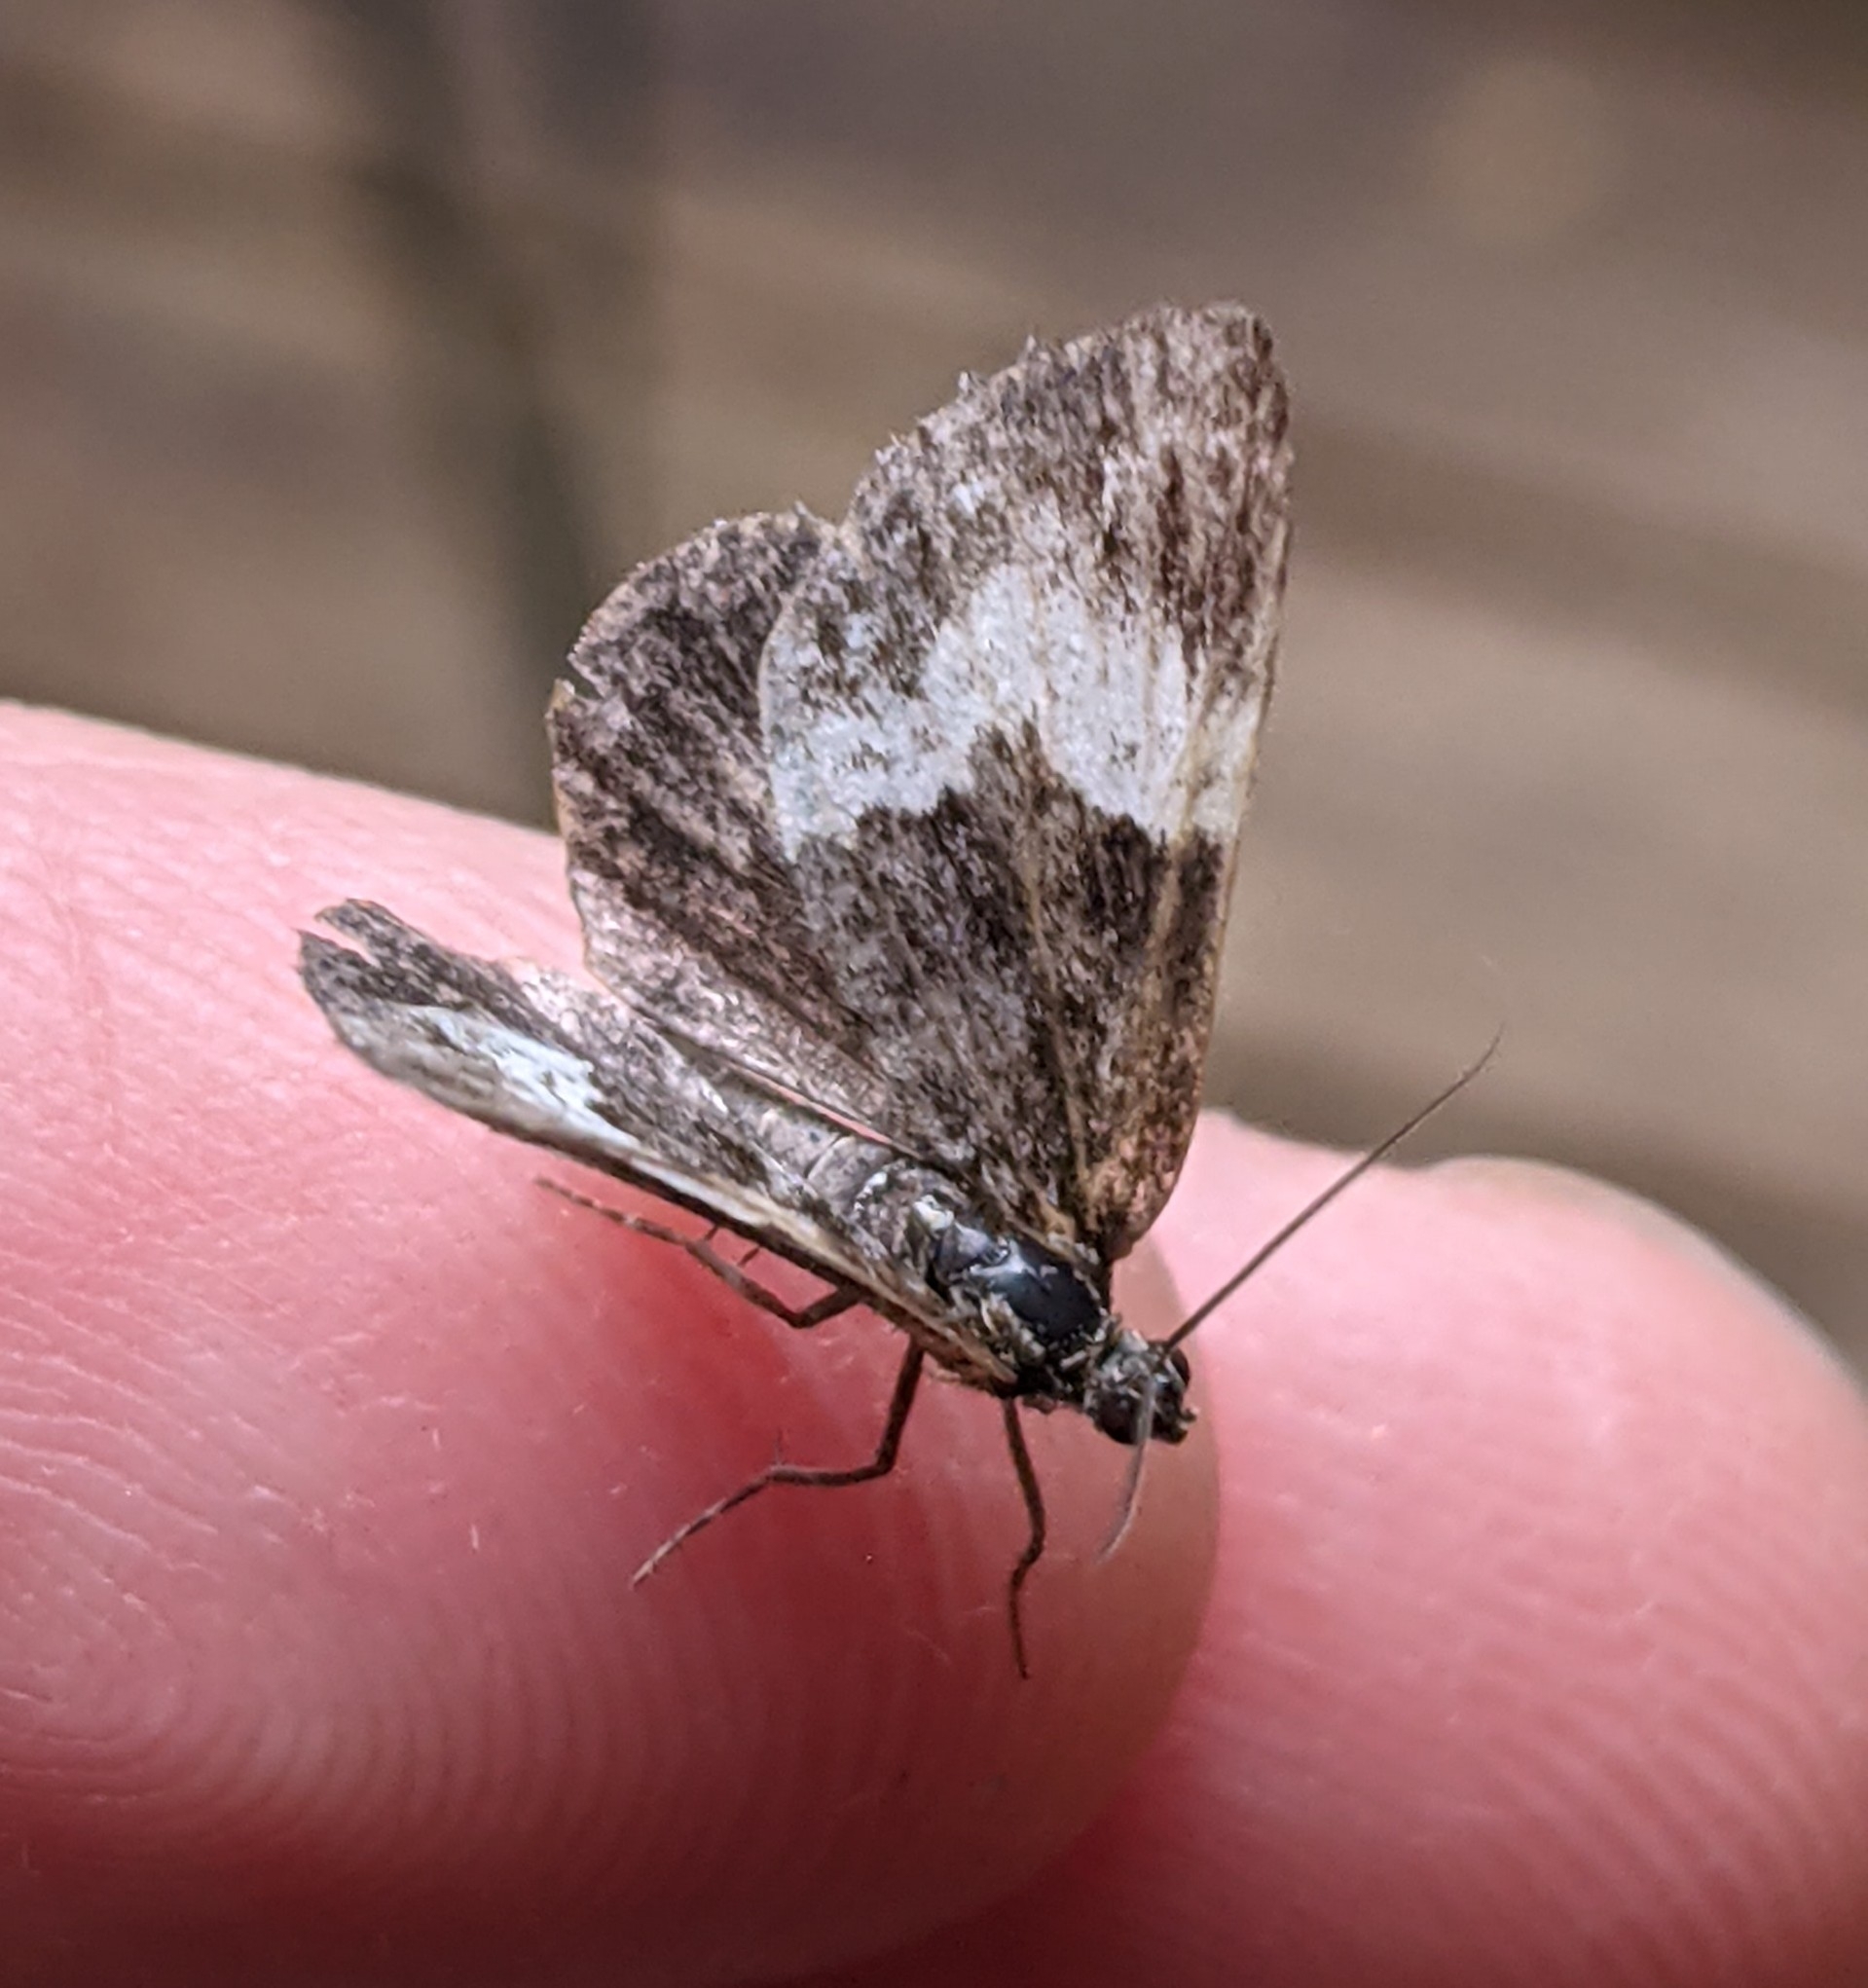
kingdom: Animalia
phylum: Arthropoda
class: Insecta
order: Lepidoptera
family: Geometridae
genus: Spargania
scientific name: Spargania luctuata
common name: White-banded carpet
